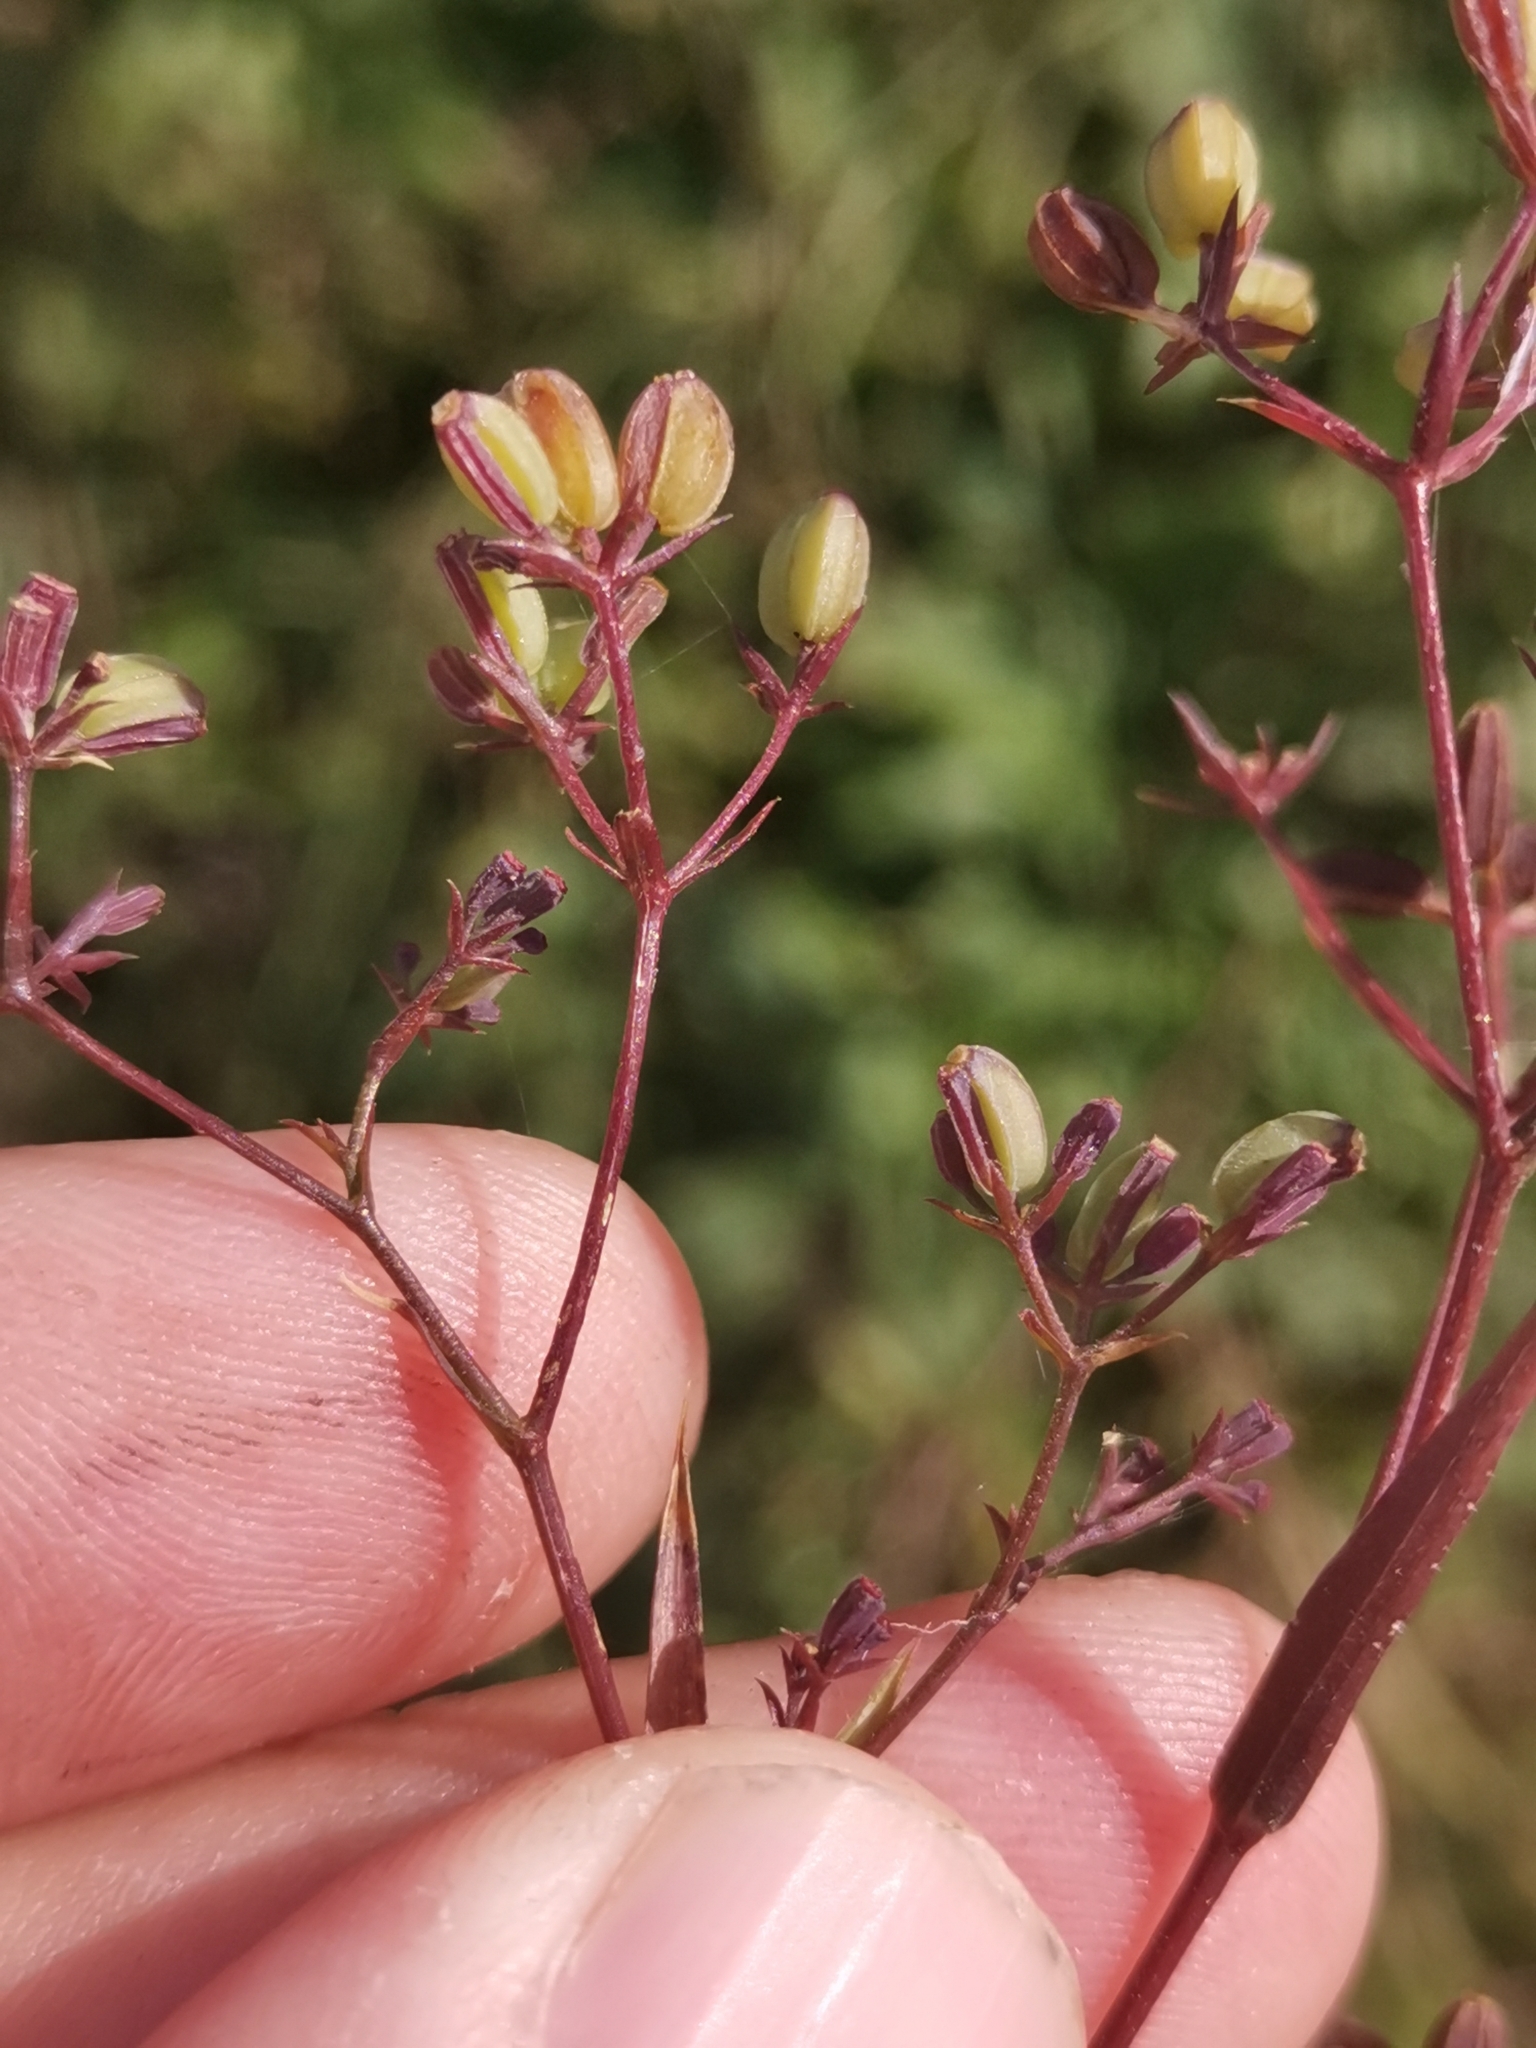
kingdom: Plantae
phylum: Tracheophyta
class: Magnoliopsida
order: Apiales
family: Apiaceae
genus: Bupleurum
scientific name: Bupleurum praealtum
